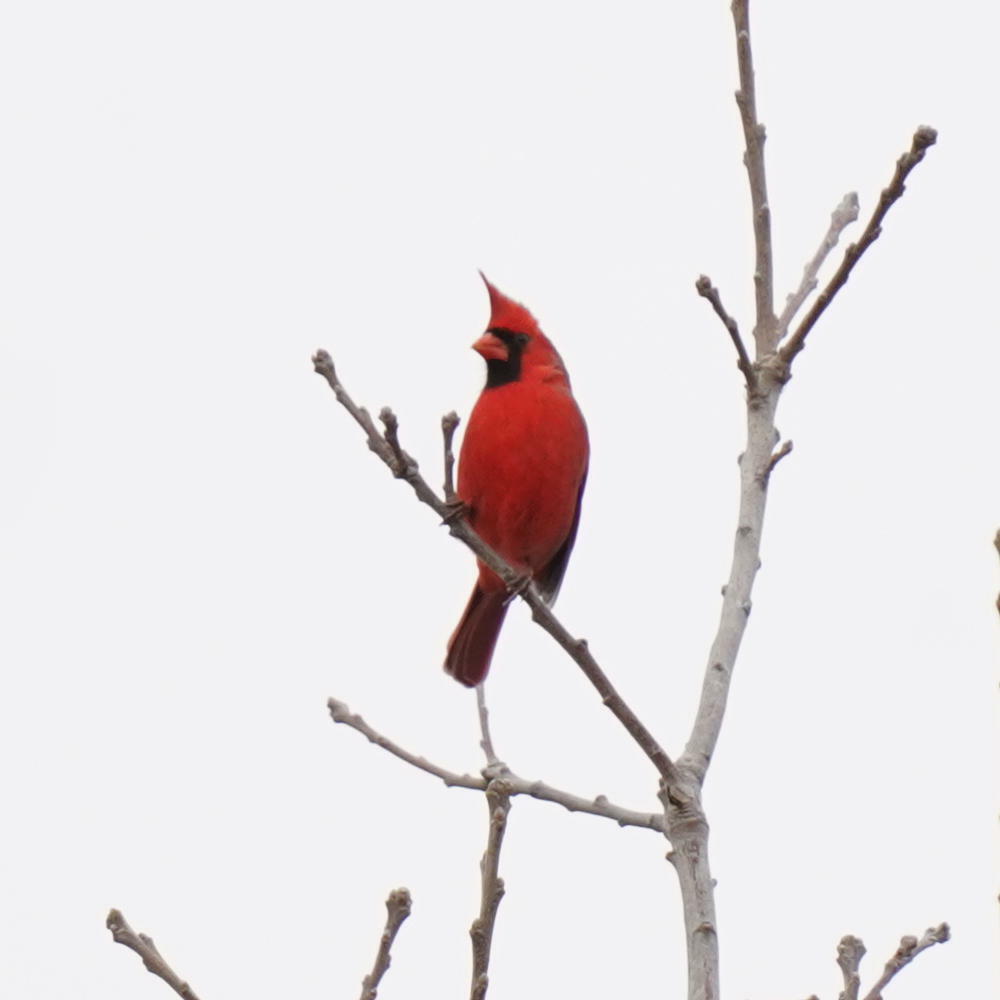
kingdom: Animalia
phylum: Chordata
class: Aves
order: Passeriformes
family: Cardinalidae
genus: Cardinalis
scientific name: Cardinalis cardinalis
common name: Northern cardinal
